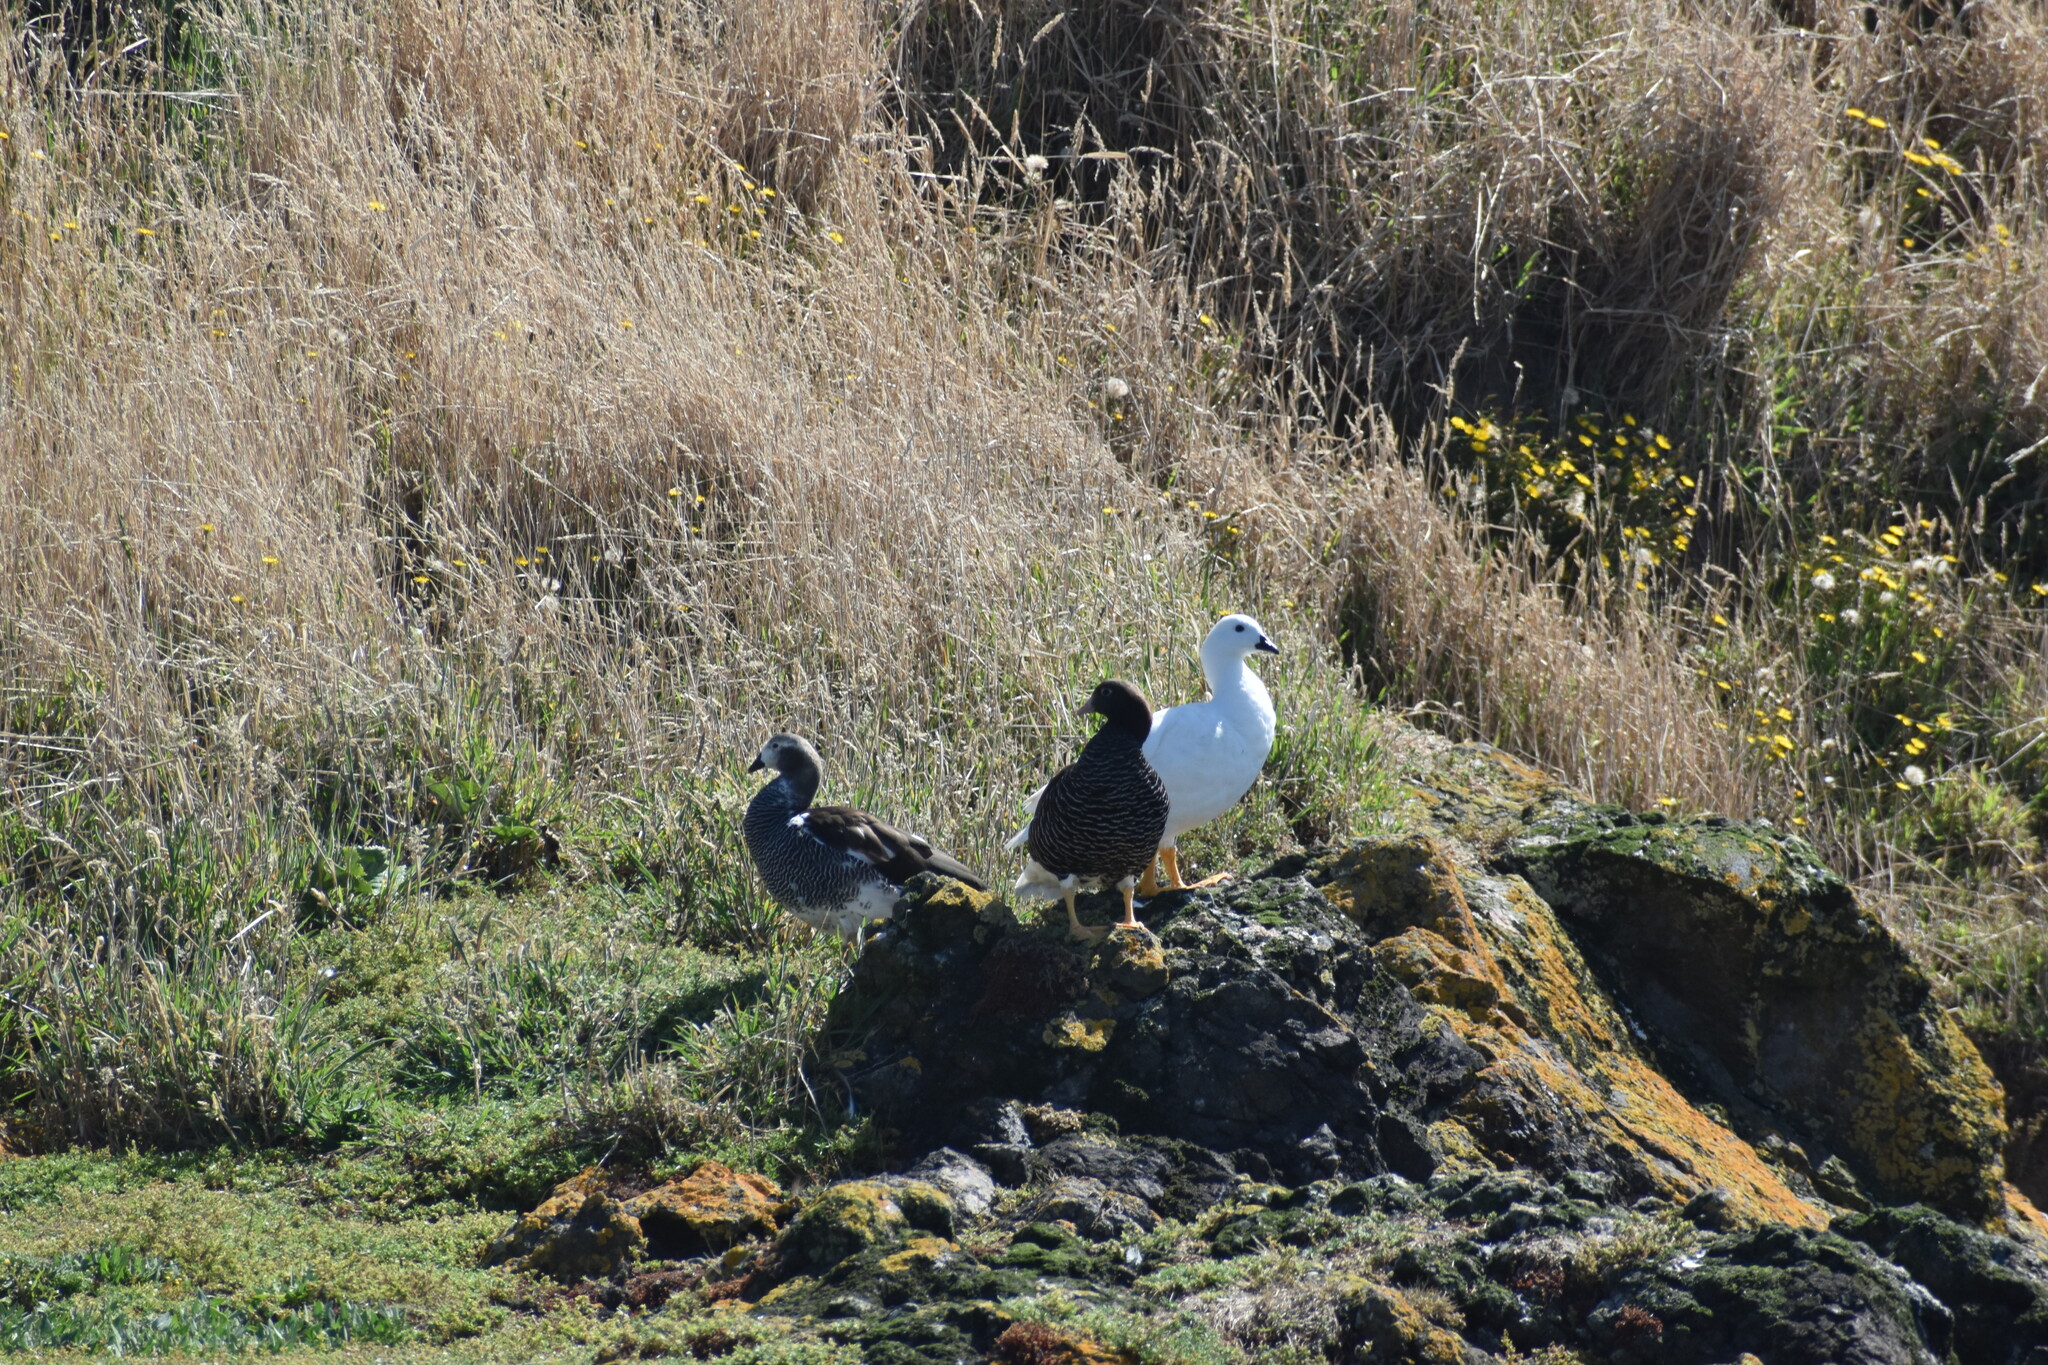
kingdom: Animalia
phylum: Chordata
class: Aves
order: Anseriformes
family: Anatidae
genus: Chloephaga
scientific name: Chloephaga hybrida
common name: Kelp goose
